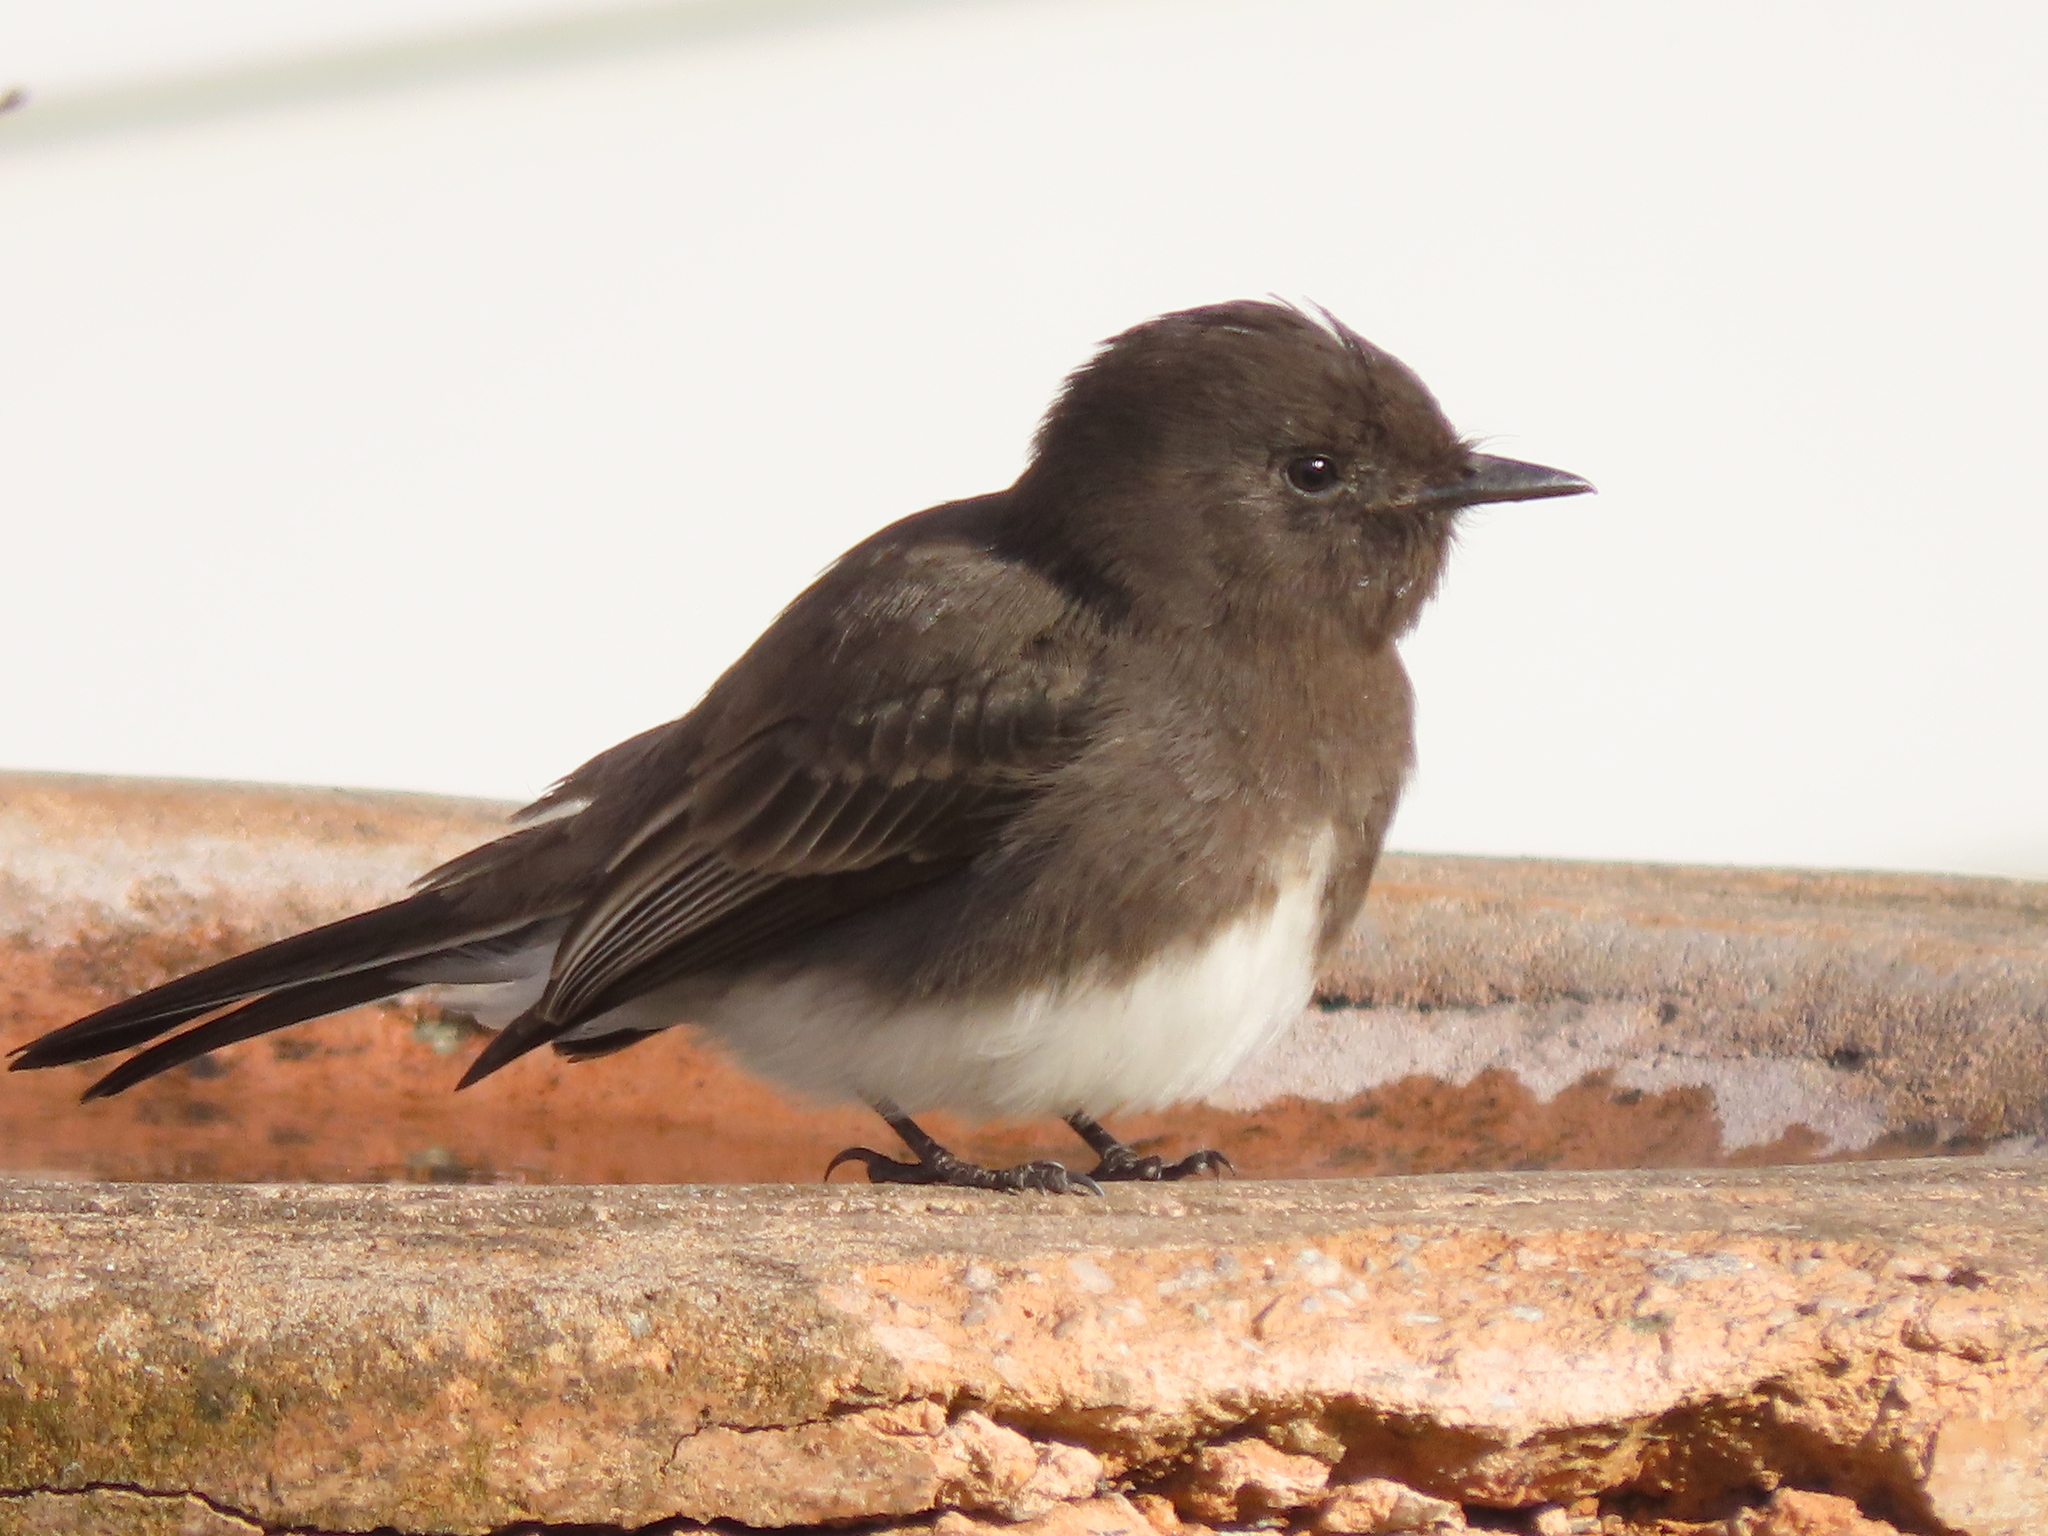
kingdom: Animalia
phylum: Chordata
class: Aves
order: Passeriformes
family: Tyrannidae
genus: Sayornis
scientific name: Sayornis nigricans
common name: Black phoebe
